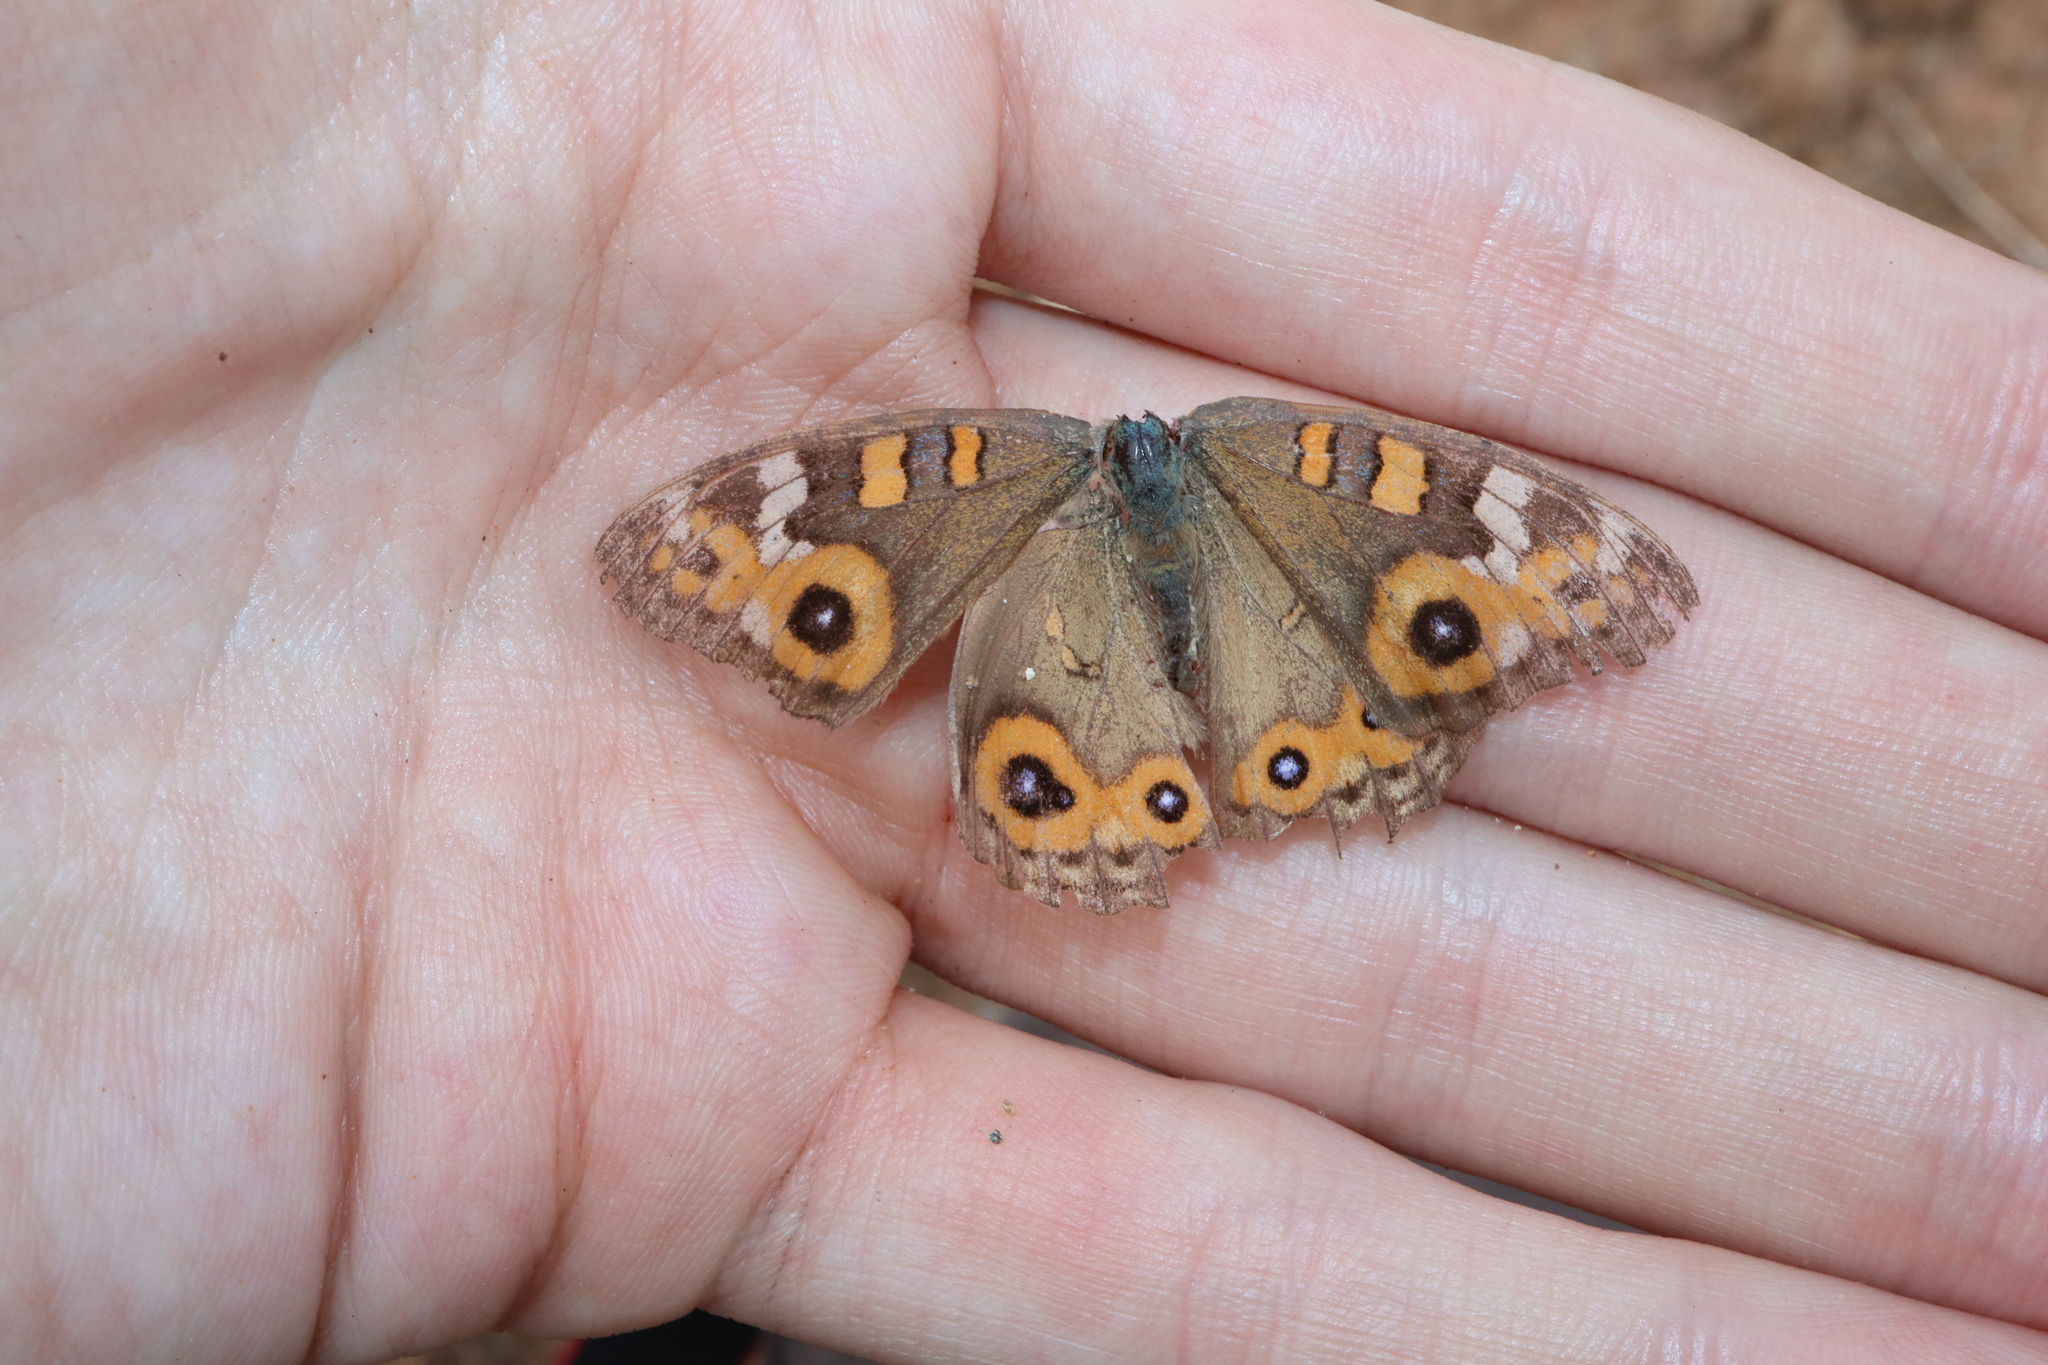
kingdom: Animalia
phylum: Arthropoda
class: Insecta
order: Lepidoptera
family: Nymphalidae
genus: Junonia
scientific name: Junonia villida
